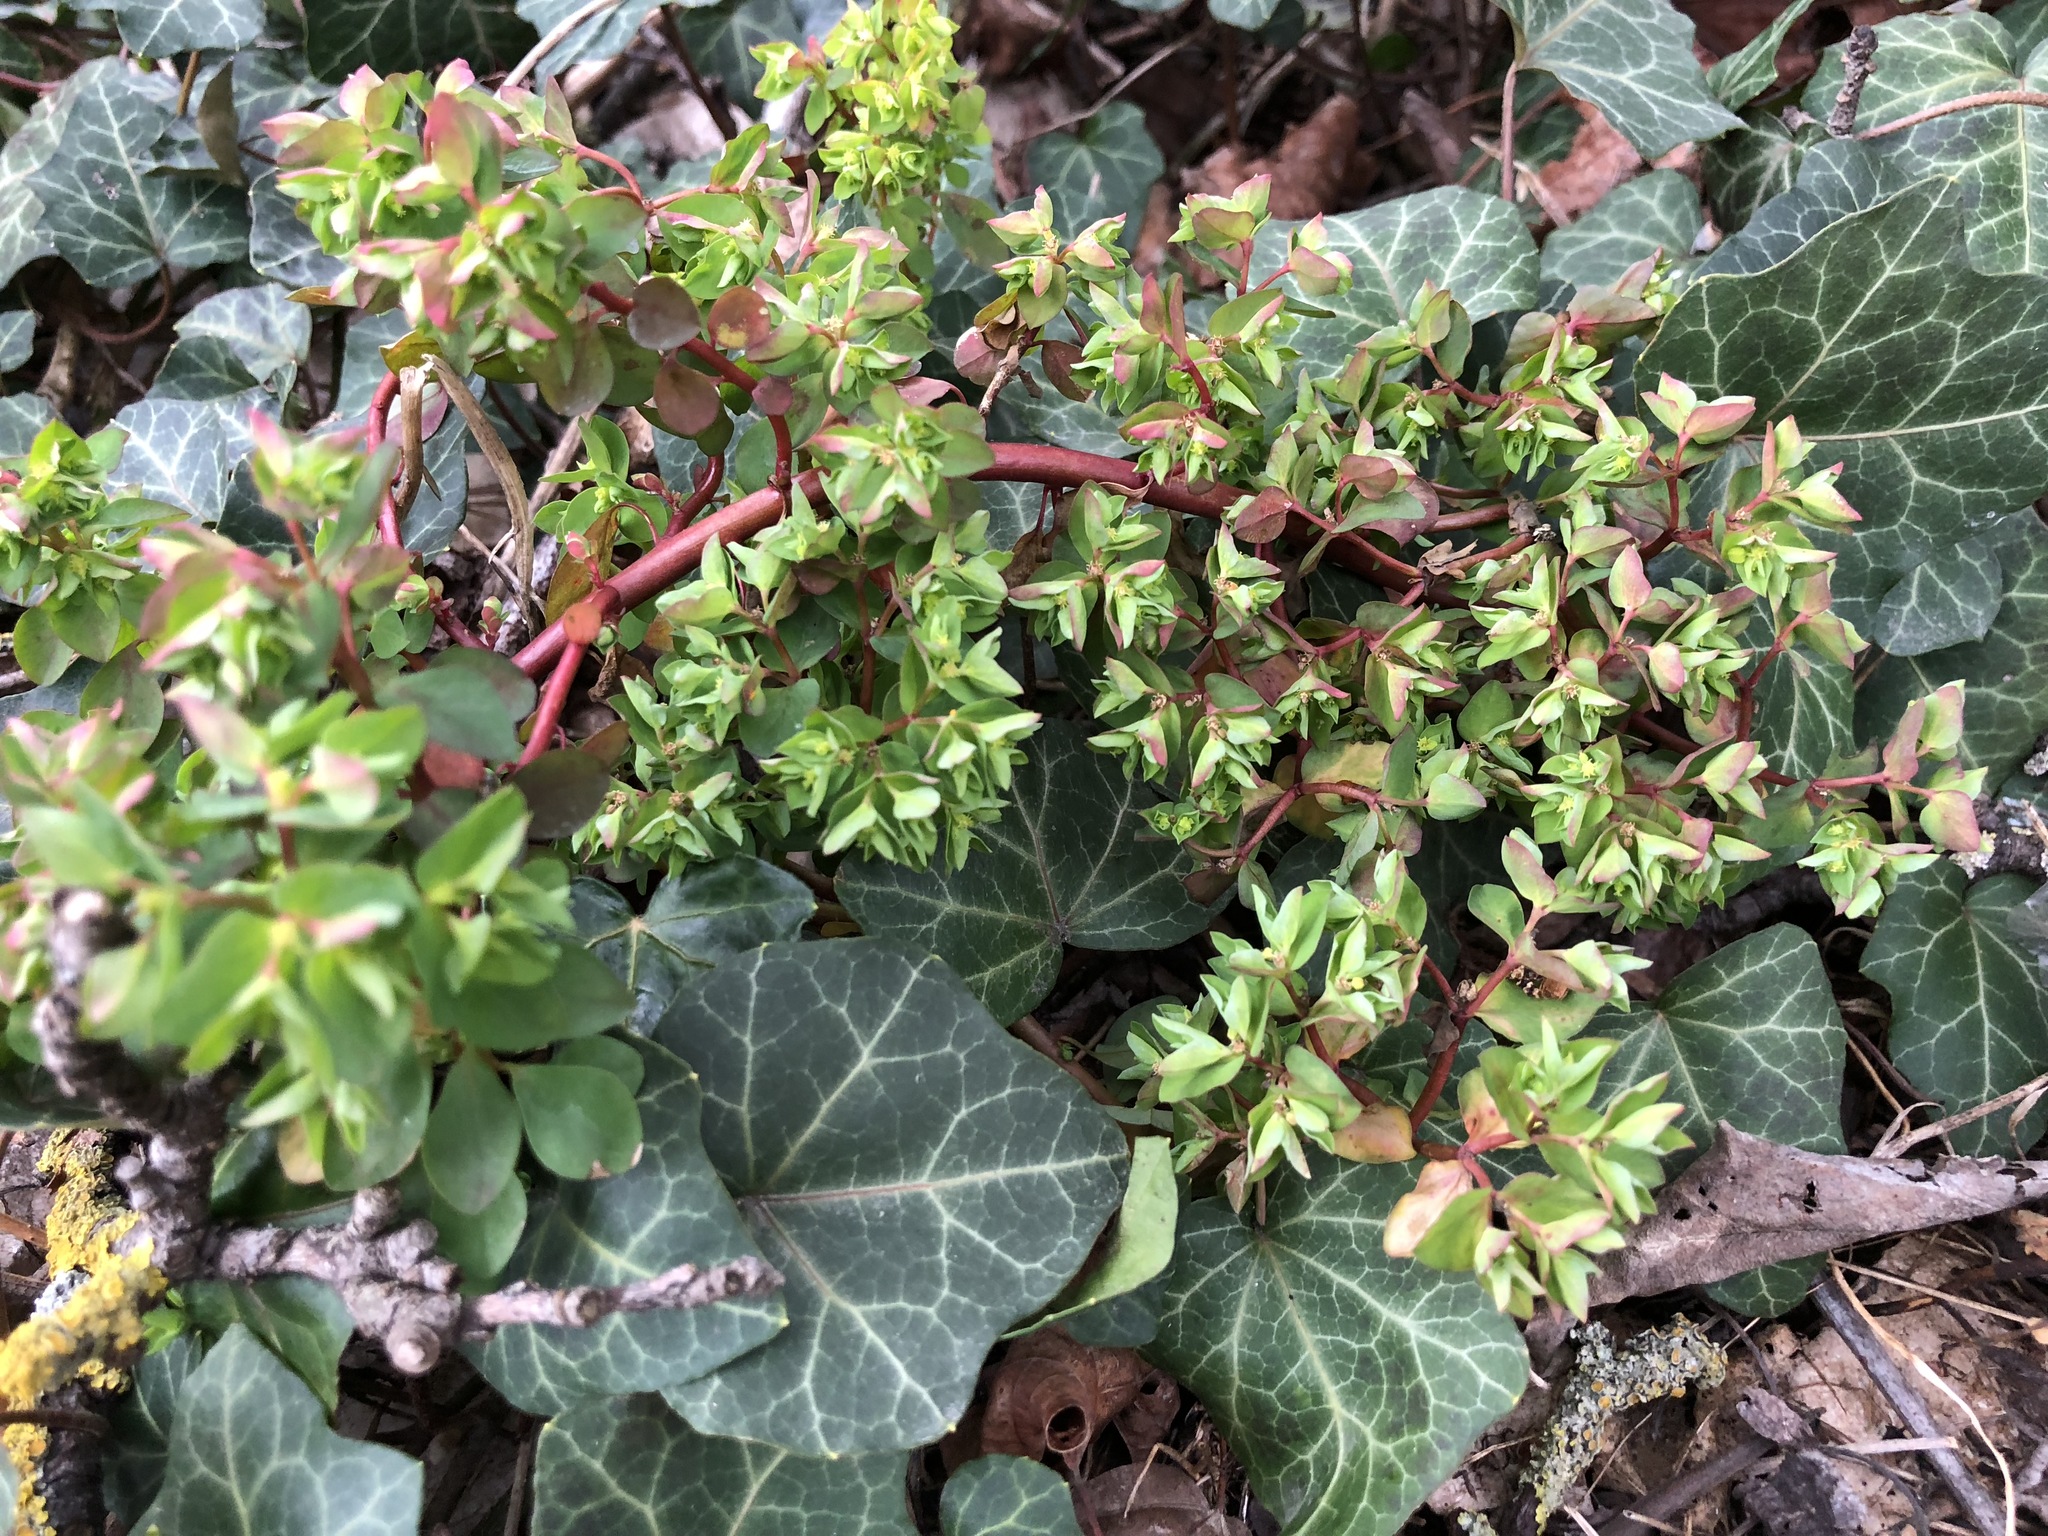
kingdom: Plantae
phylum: Tracheophyta
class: Magnoliopsida
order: Malpighiales
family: Euphorbiaceae
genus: Euphorbia
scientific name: Euphorbia peplus
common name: Petty spurge
